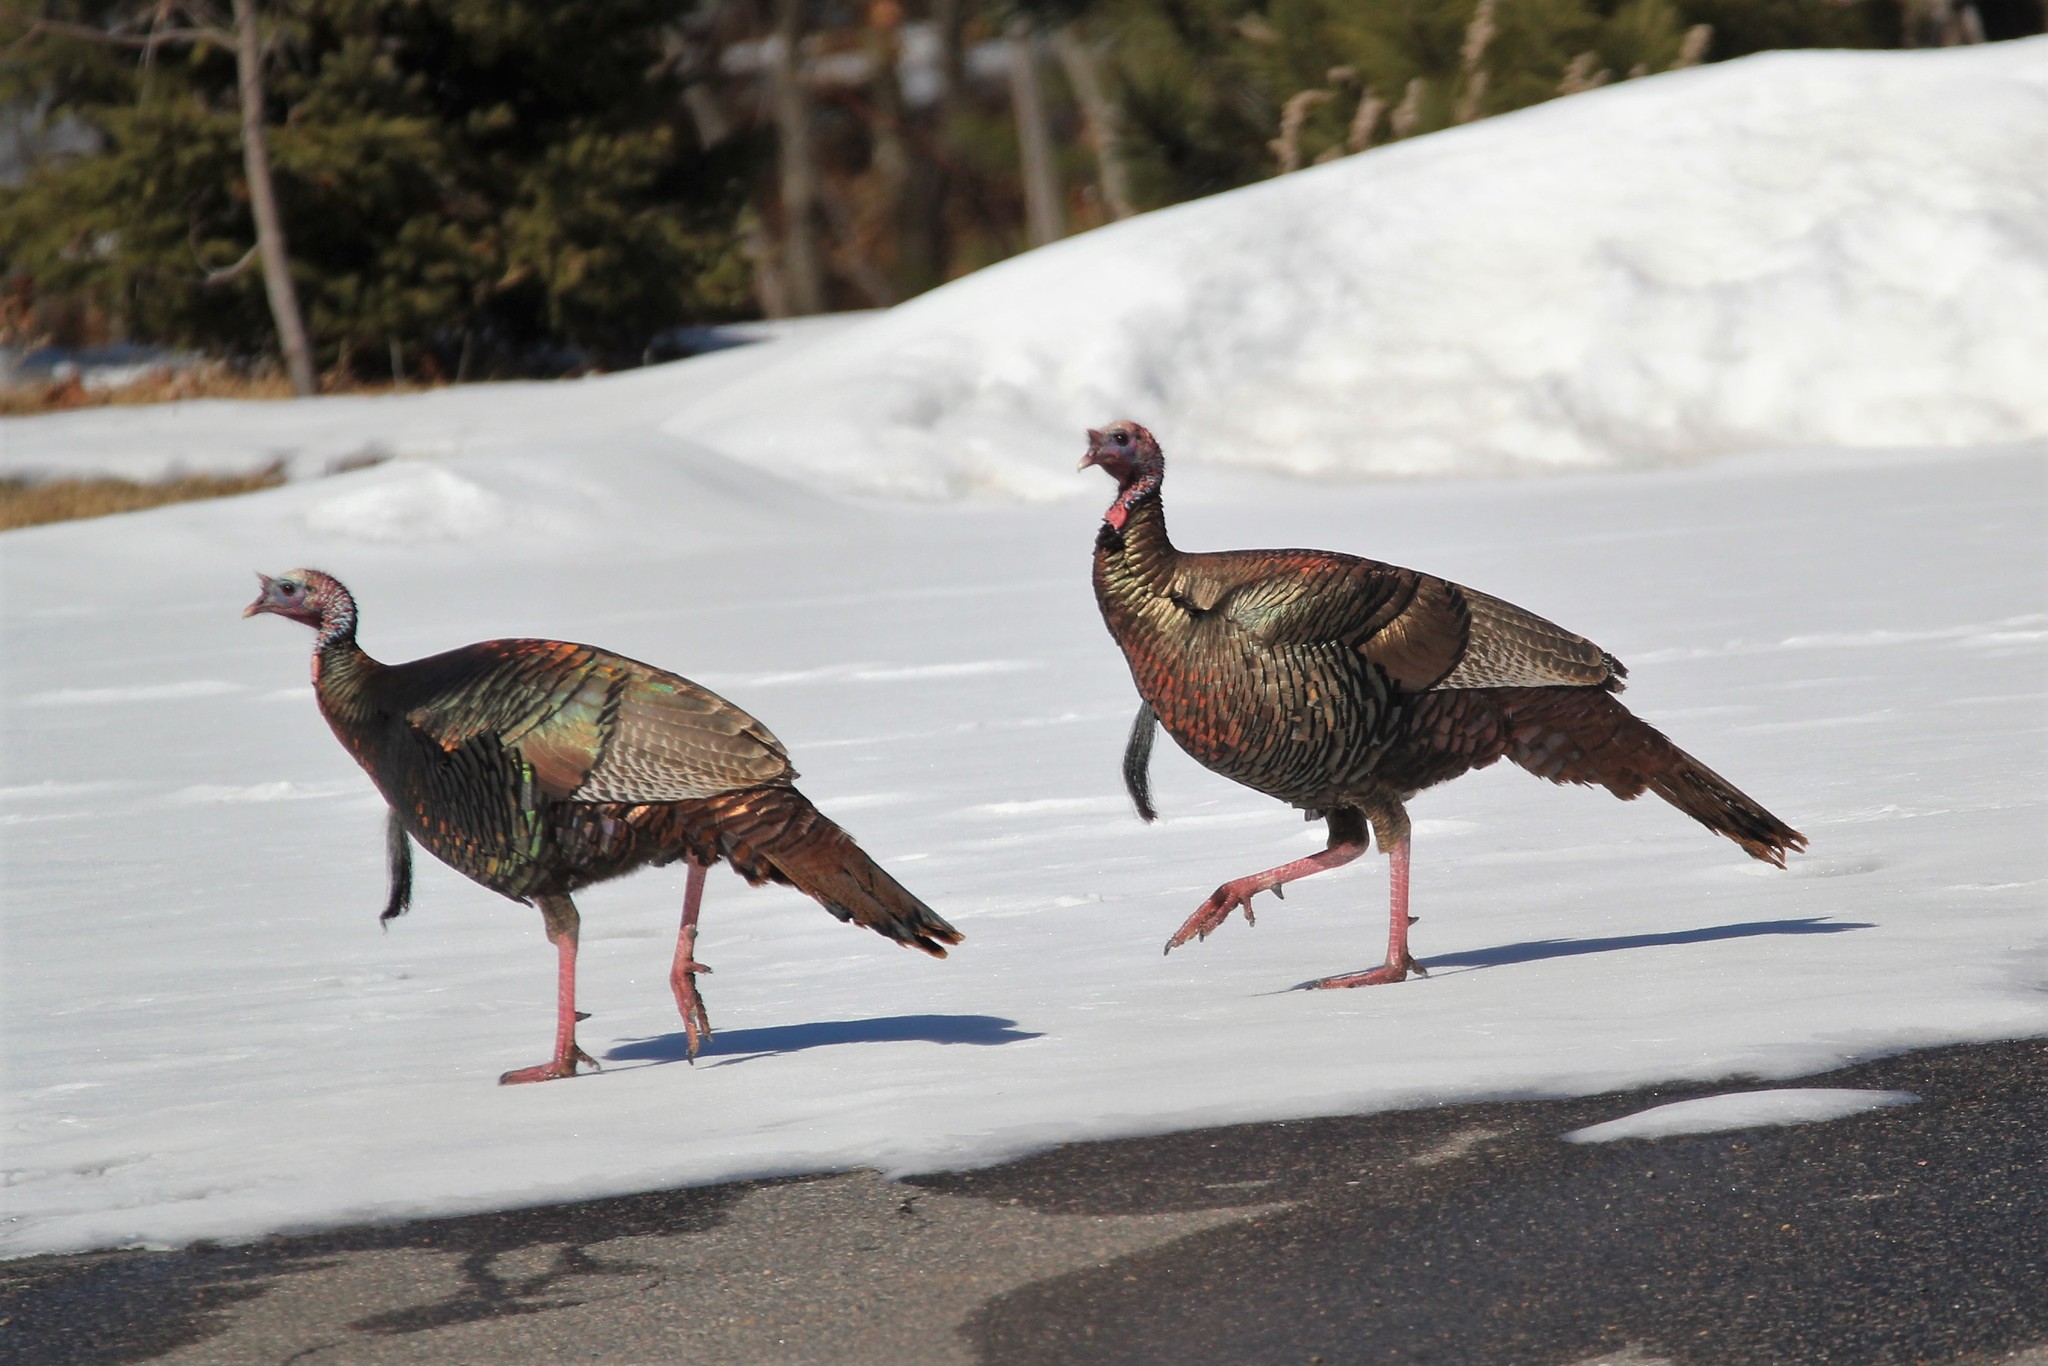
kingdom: Animalia
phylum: Chordata
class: Aves
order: Galliformes
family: Phasianidae
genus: Meleagris
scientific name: Meleagris gallopavo
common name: Wild turkey
